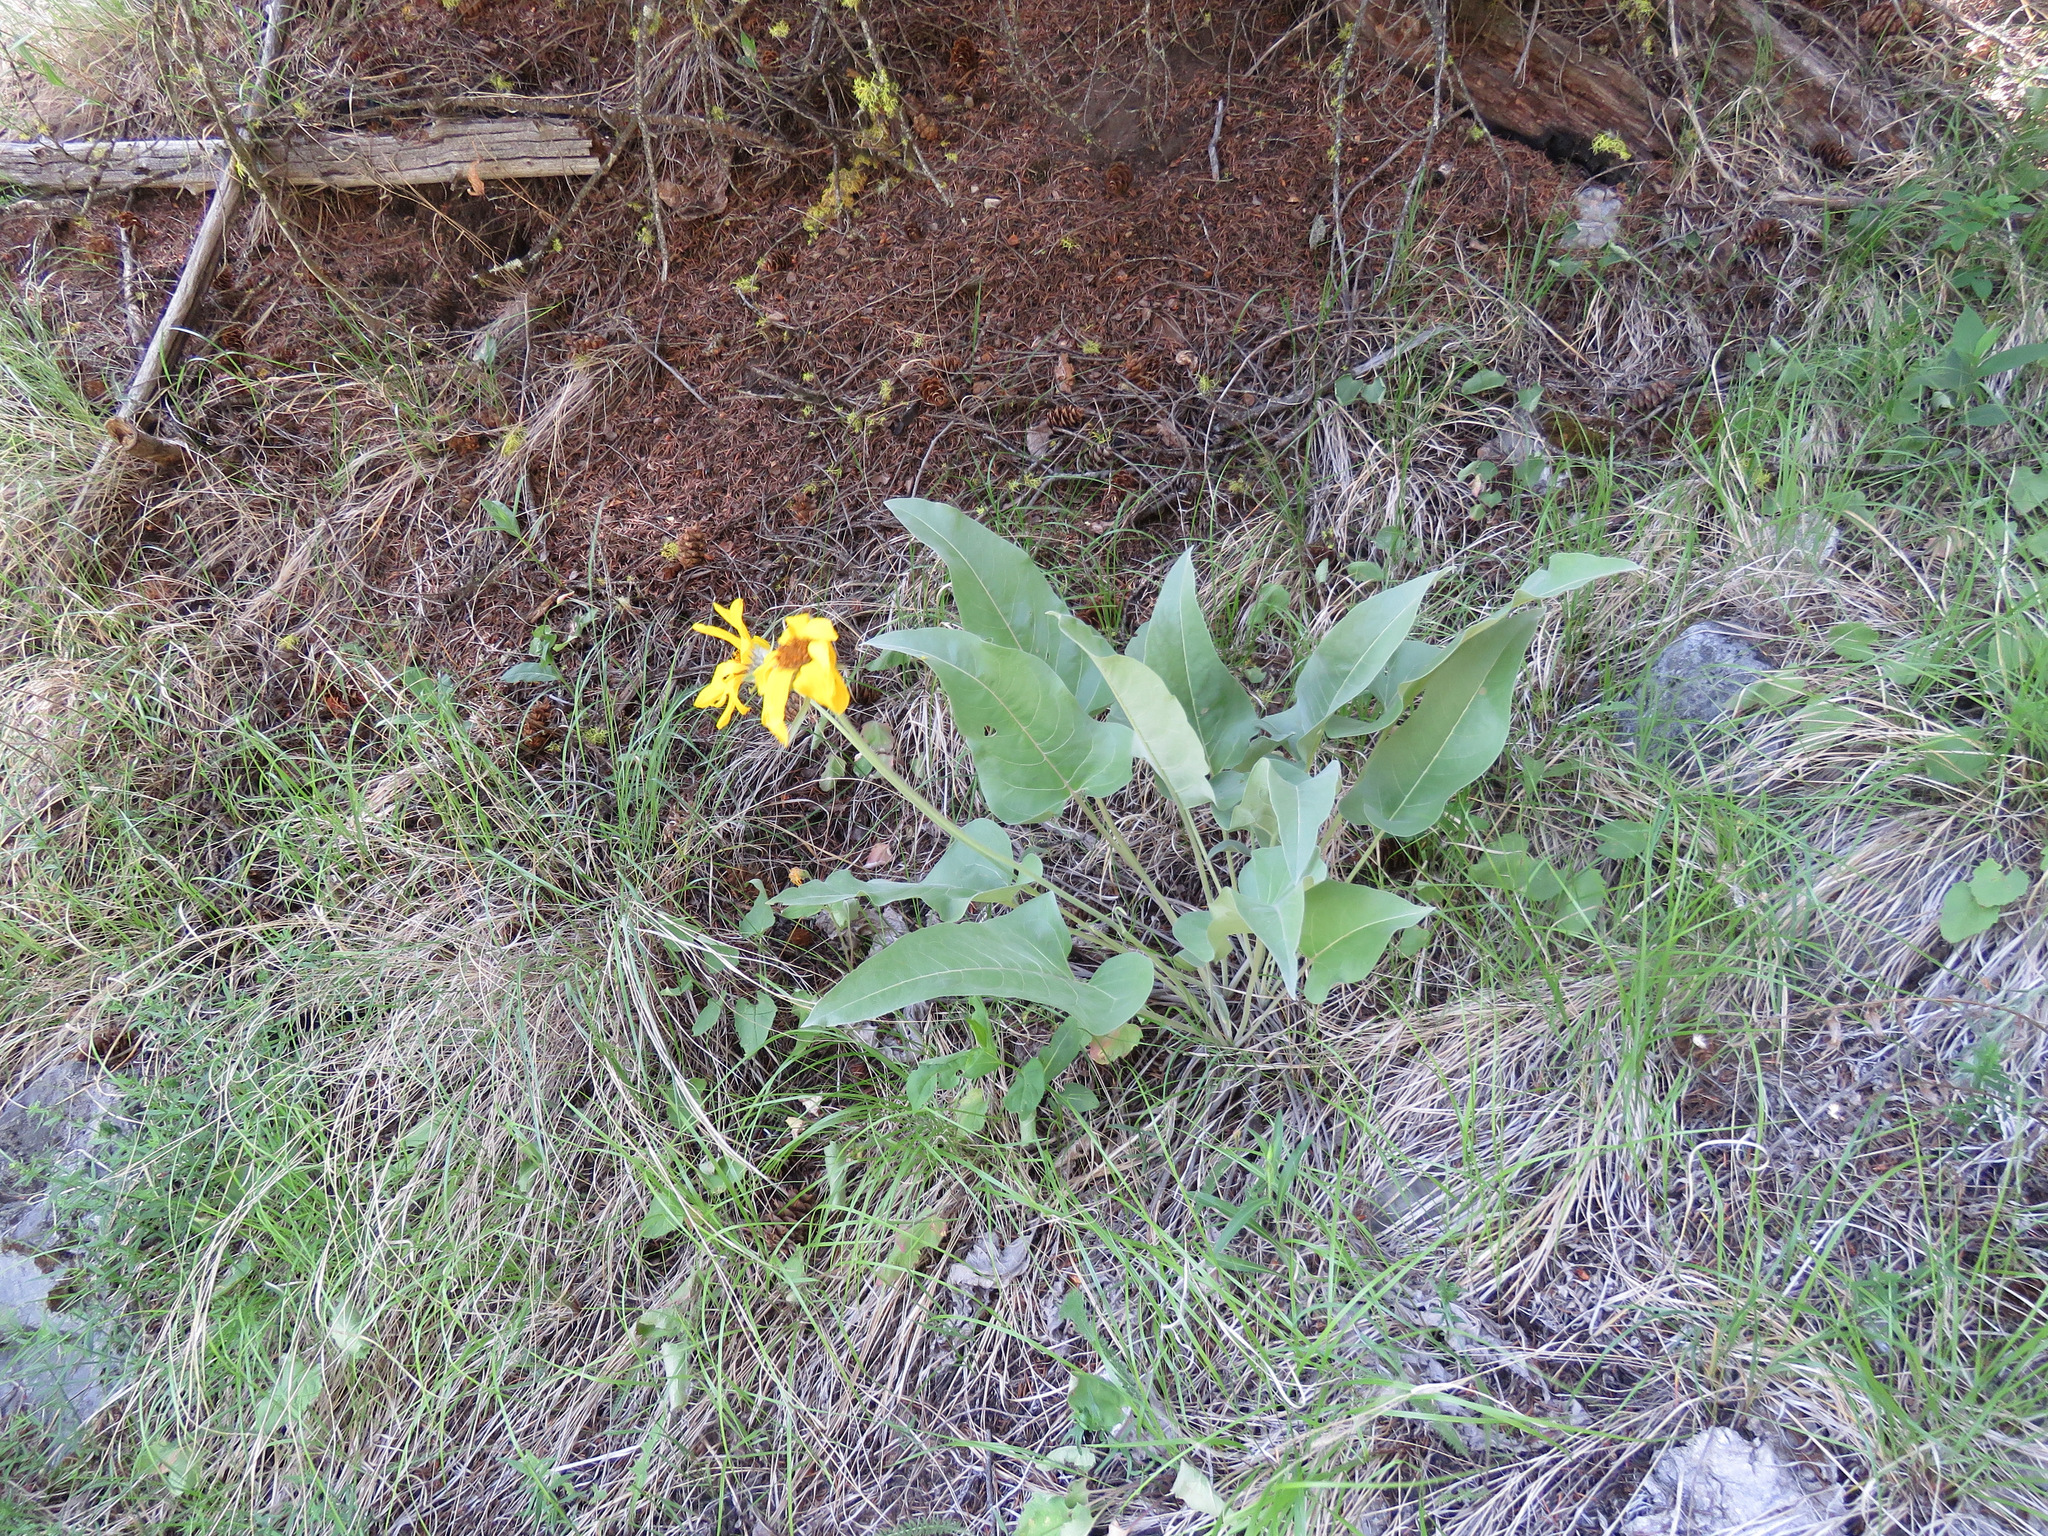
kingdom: Plantae
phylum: Tracheophyta
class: Magnoliopsida
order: Asterales
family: Asteraceae
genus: Wyethia
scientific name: Wyethia sagittata
